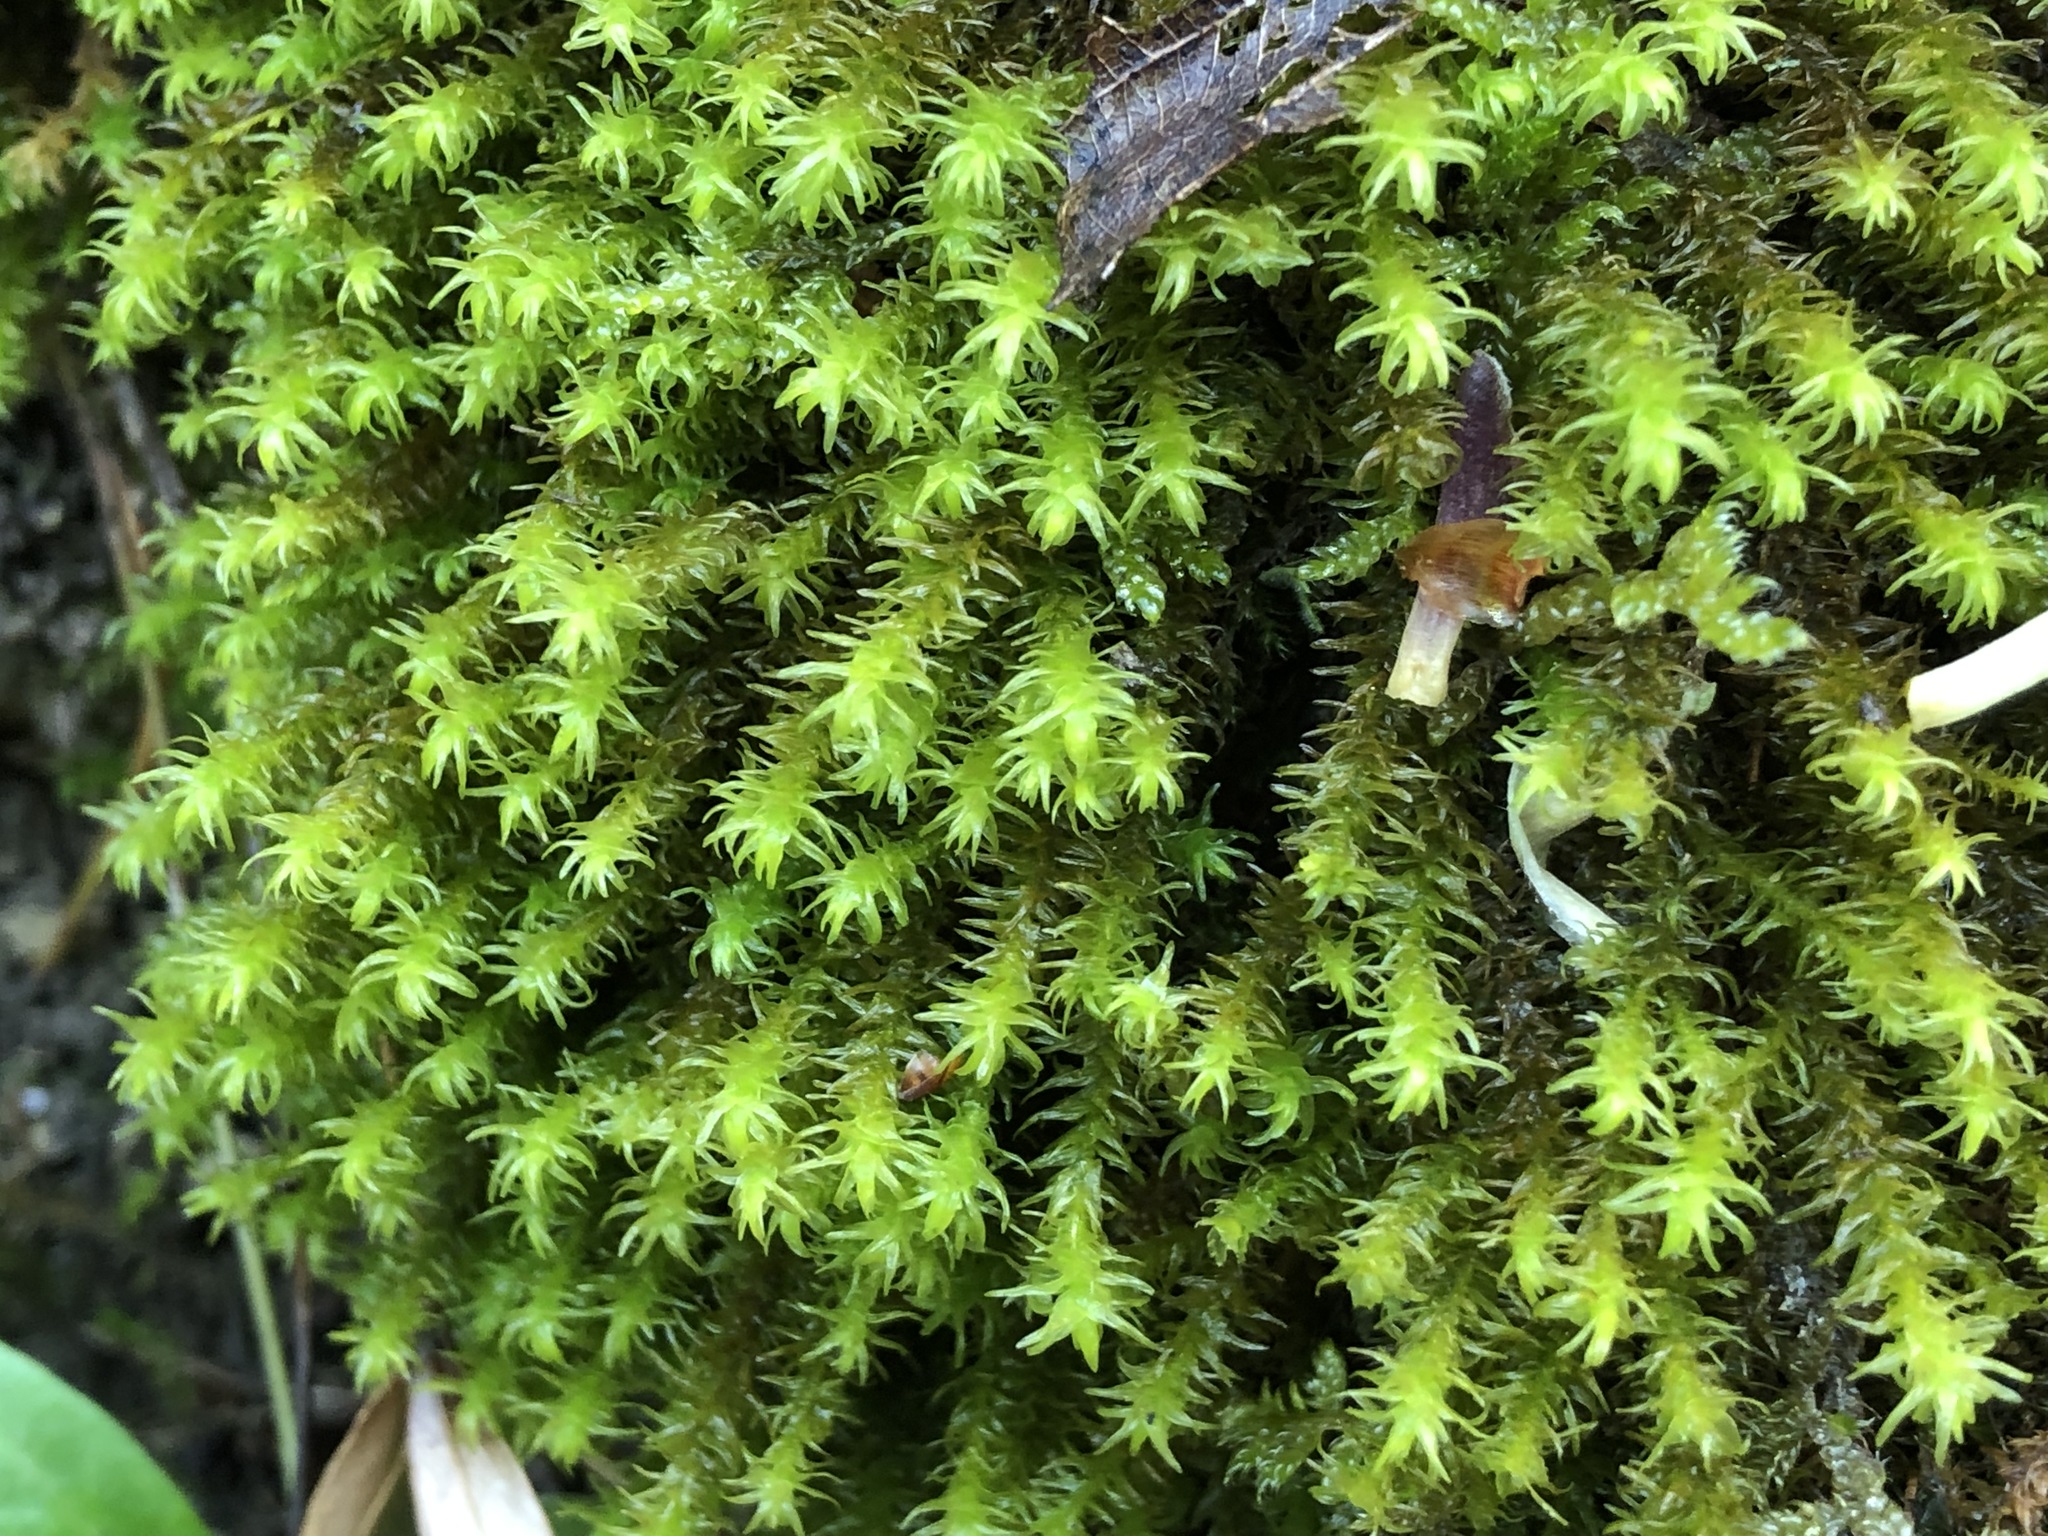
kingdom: Plantae
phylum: Bryophyta
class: Bryopsida
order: Hypnales
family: Anomodontaceae
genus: Anomodon
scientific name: Anomodon viticulosus
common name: Tall anomodon
